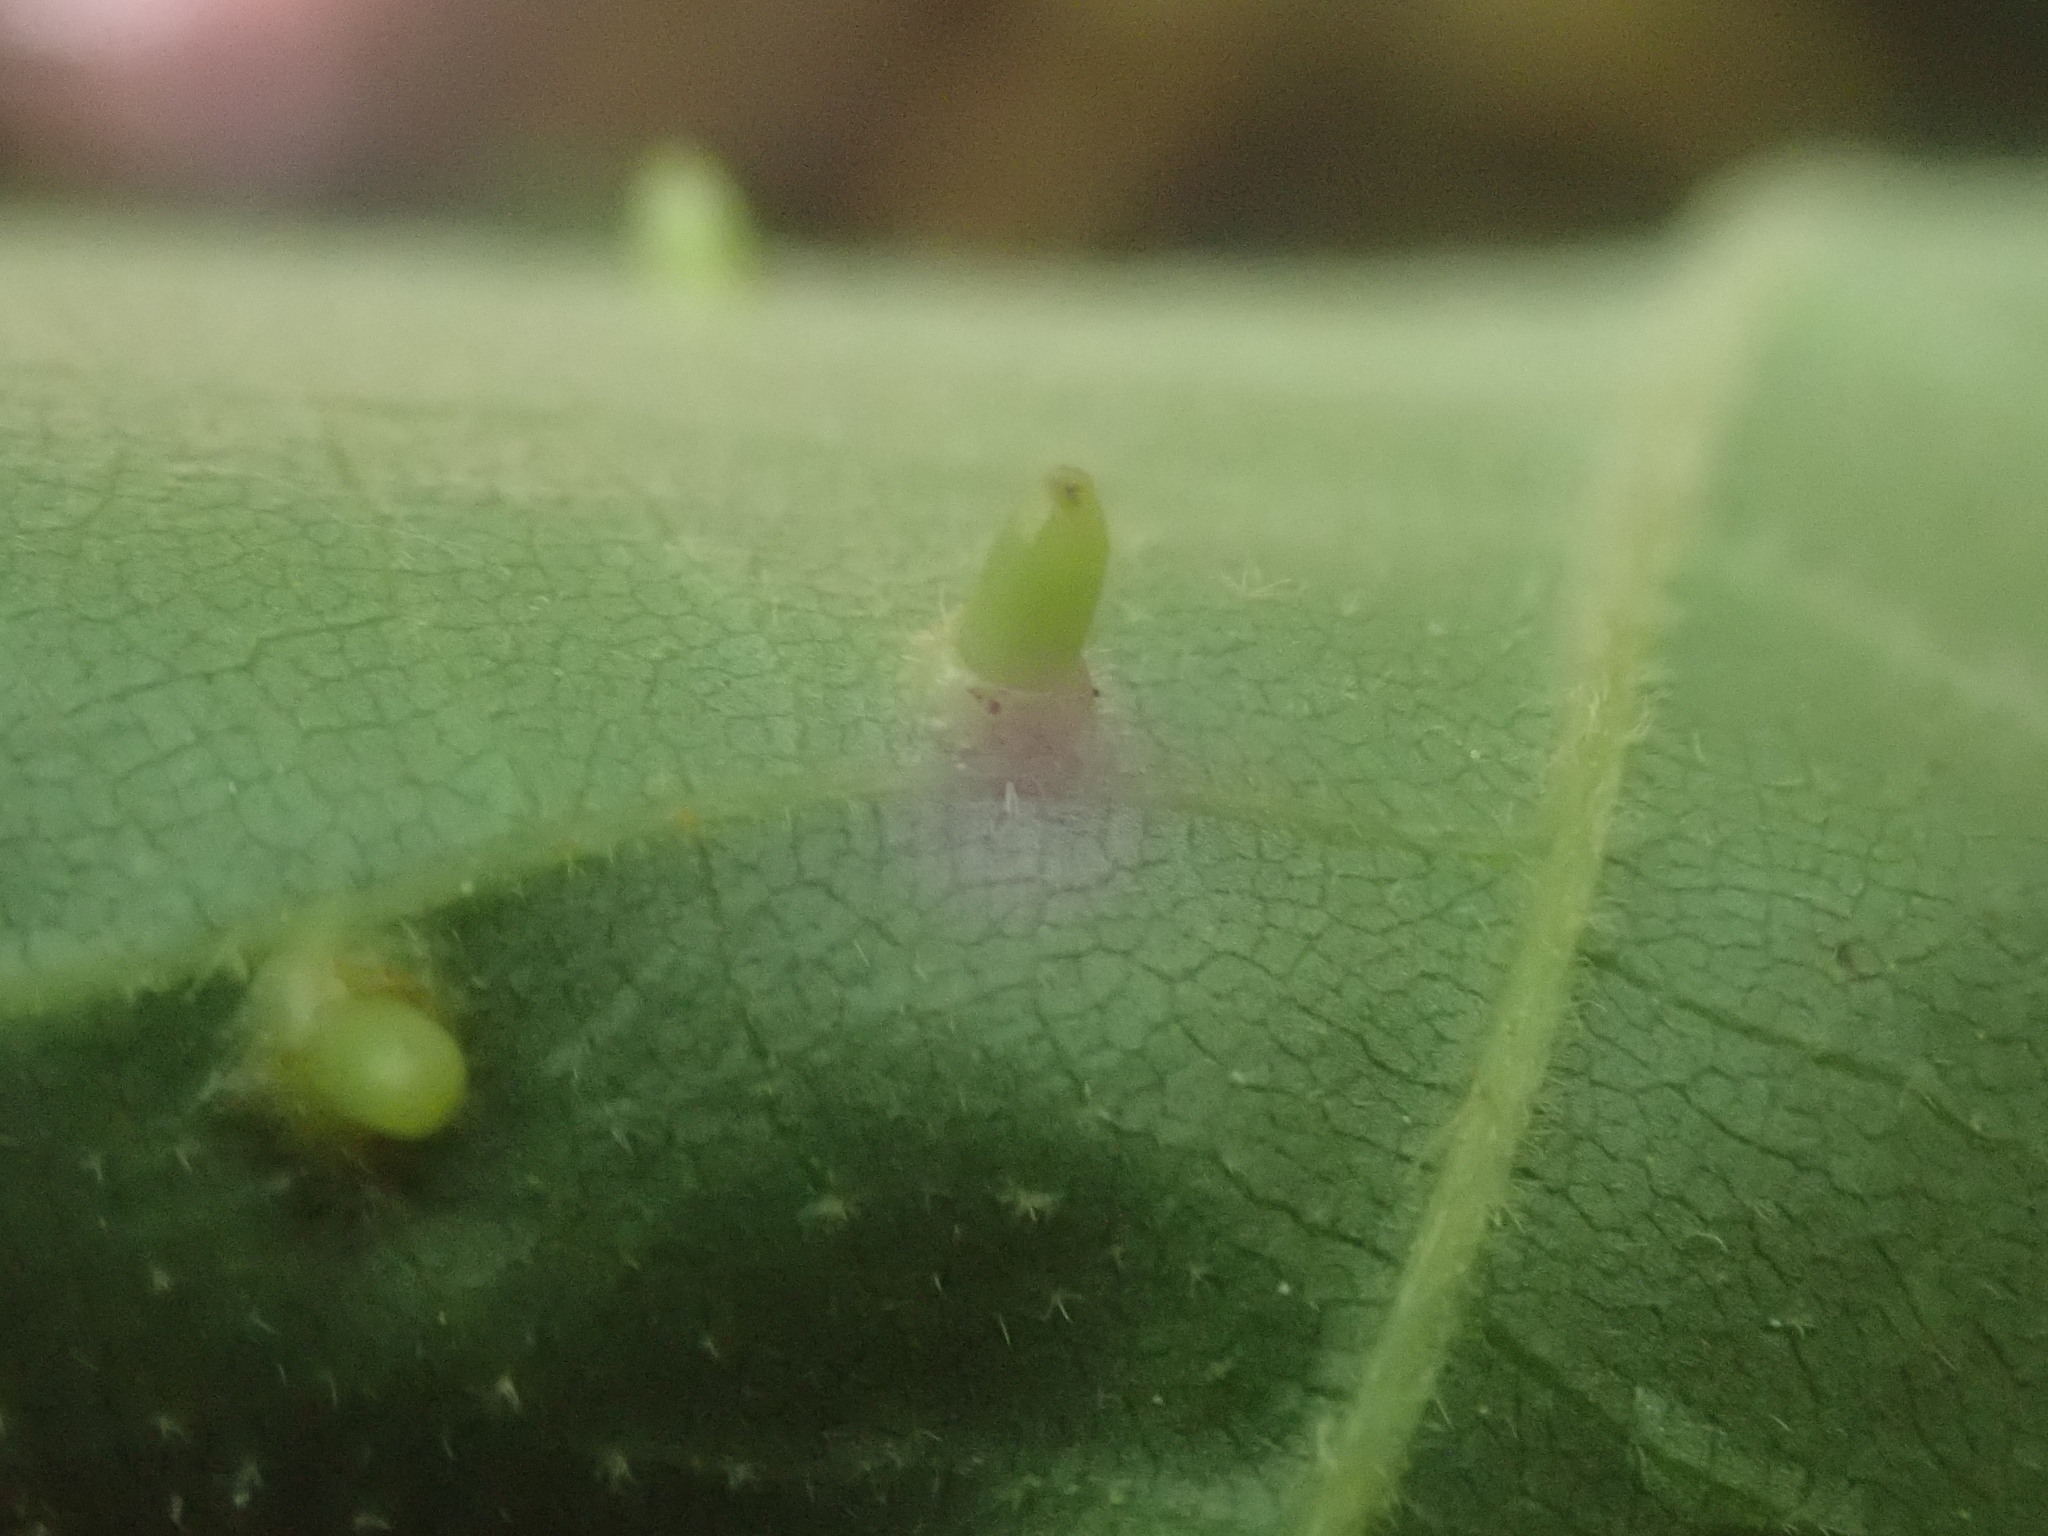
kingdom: Animalia
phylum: Arthropoda
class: Insecta
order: Diptera
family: Cecidomyiidae
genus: Caryomyia
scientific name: Caryomyia tubicola
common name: Hickory bullet gall midge
